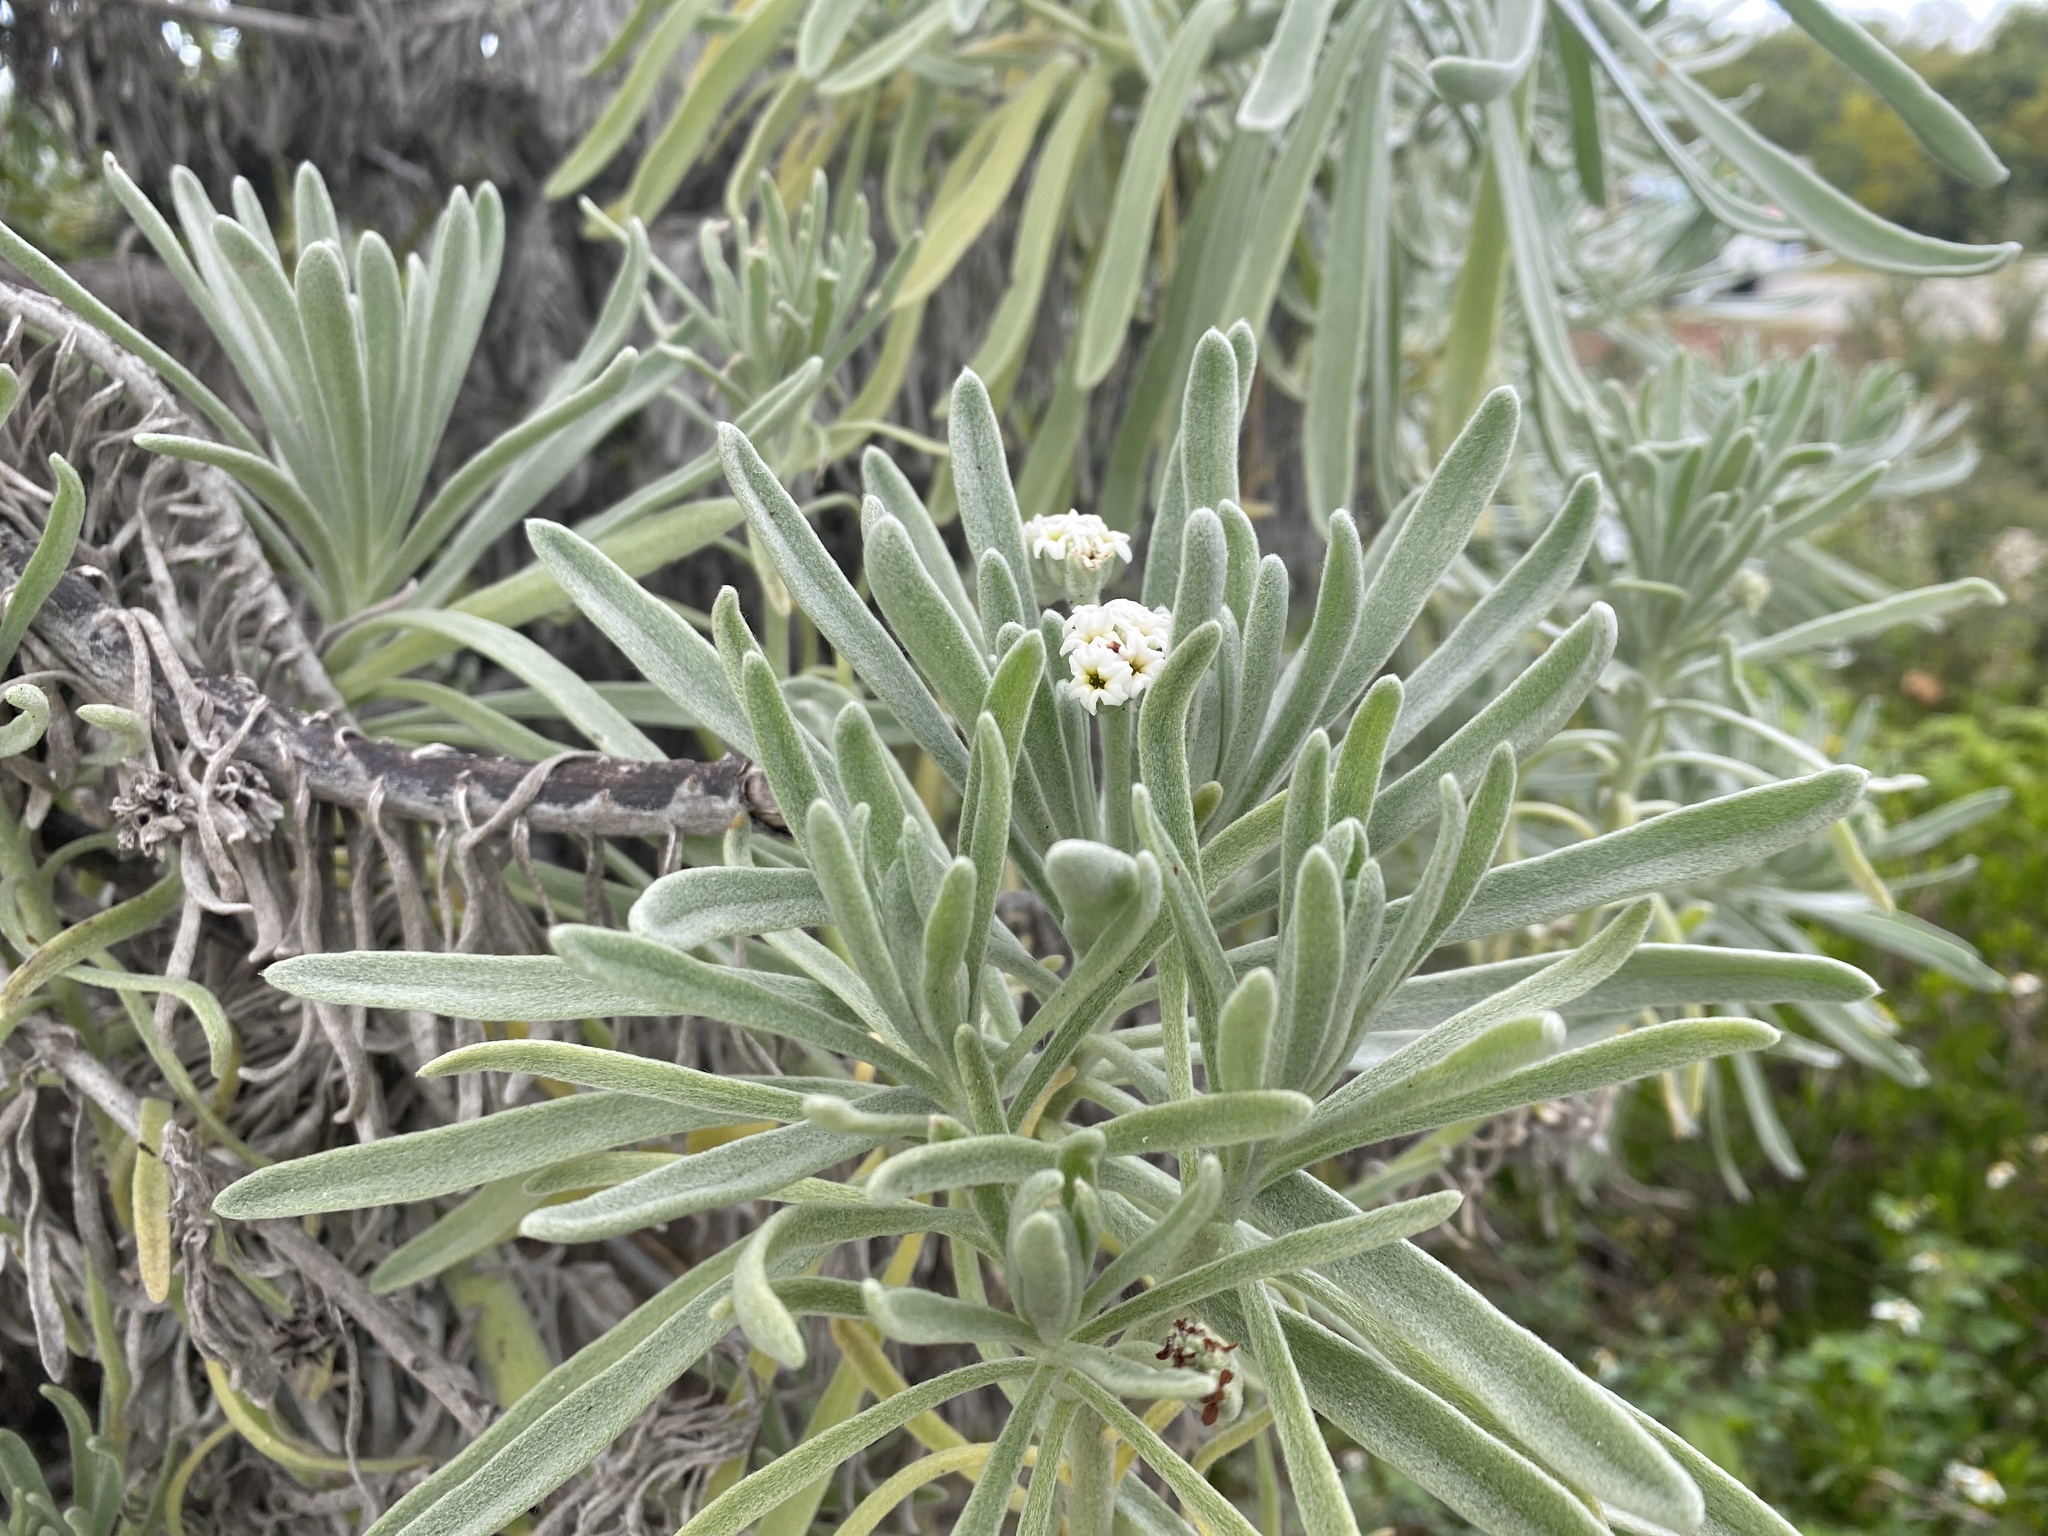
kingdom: Plantae
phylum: Tracheophyta
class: Magnoliopsida
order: Boraginales
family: Heliotropiaceae
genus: Tournefortia
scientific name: Tournefortia gnaphalodes
